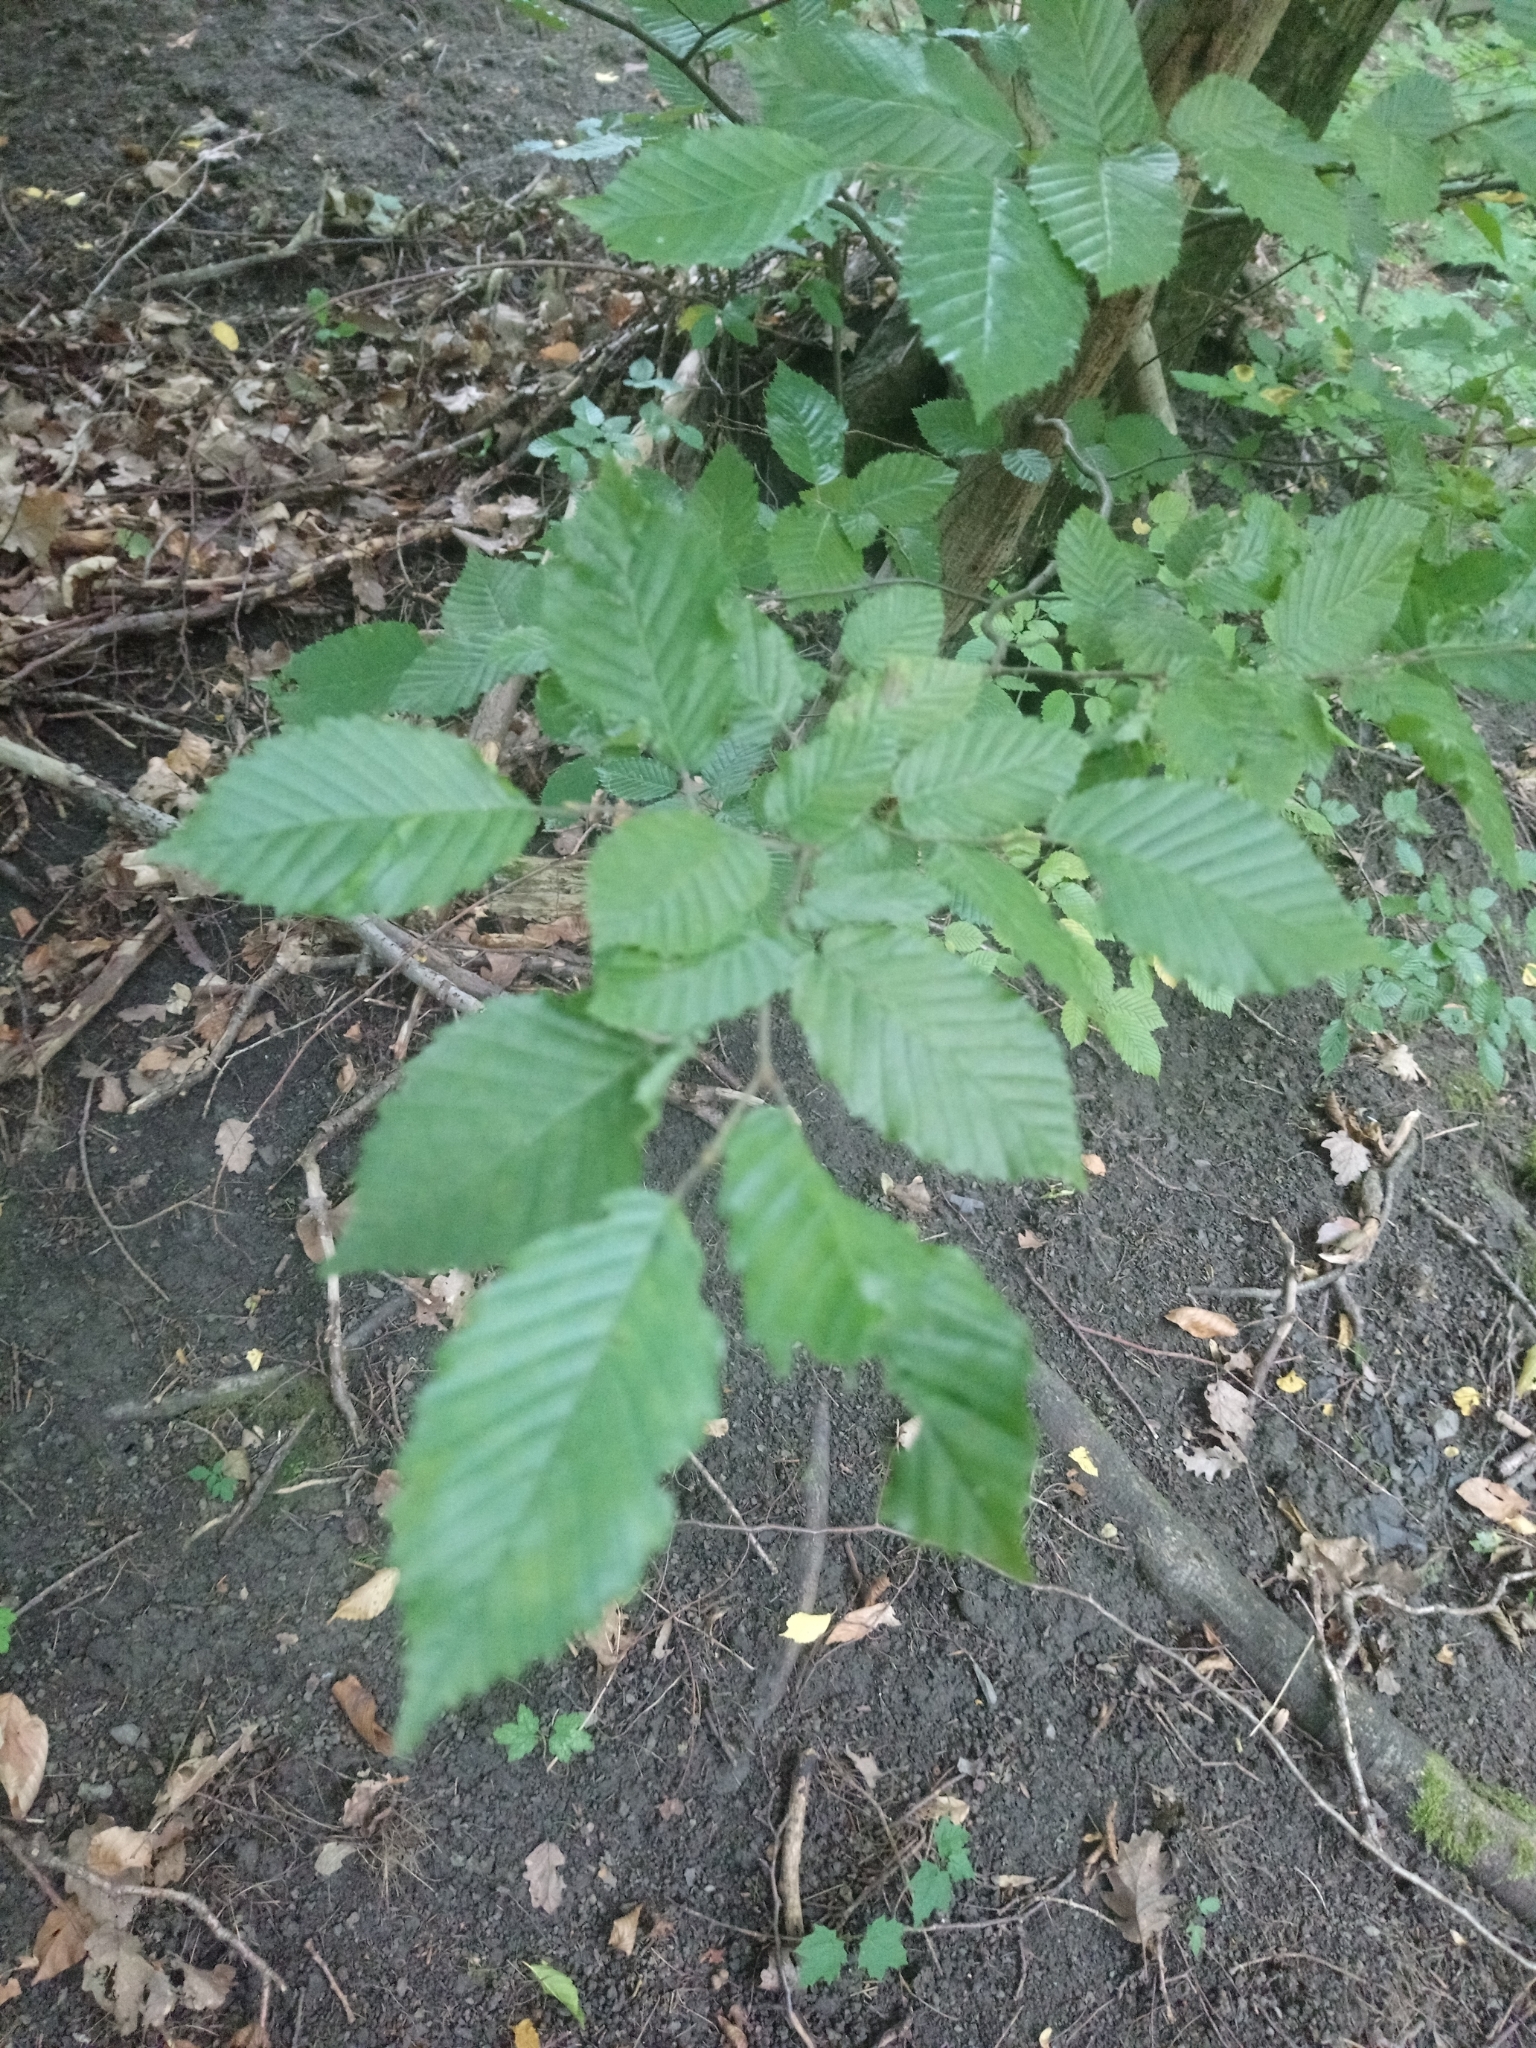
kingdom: Plantae
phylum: Tracheophyta
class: Magnoliopsida
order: Fagales
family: Betulaceae
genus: Carpinus
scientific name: Carpinus betulus
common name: Hornbeam
